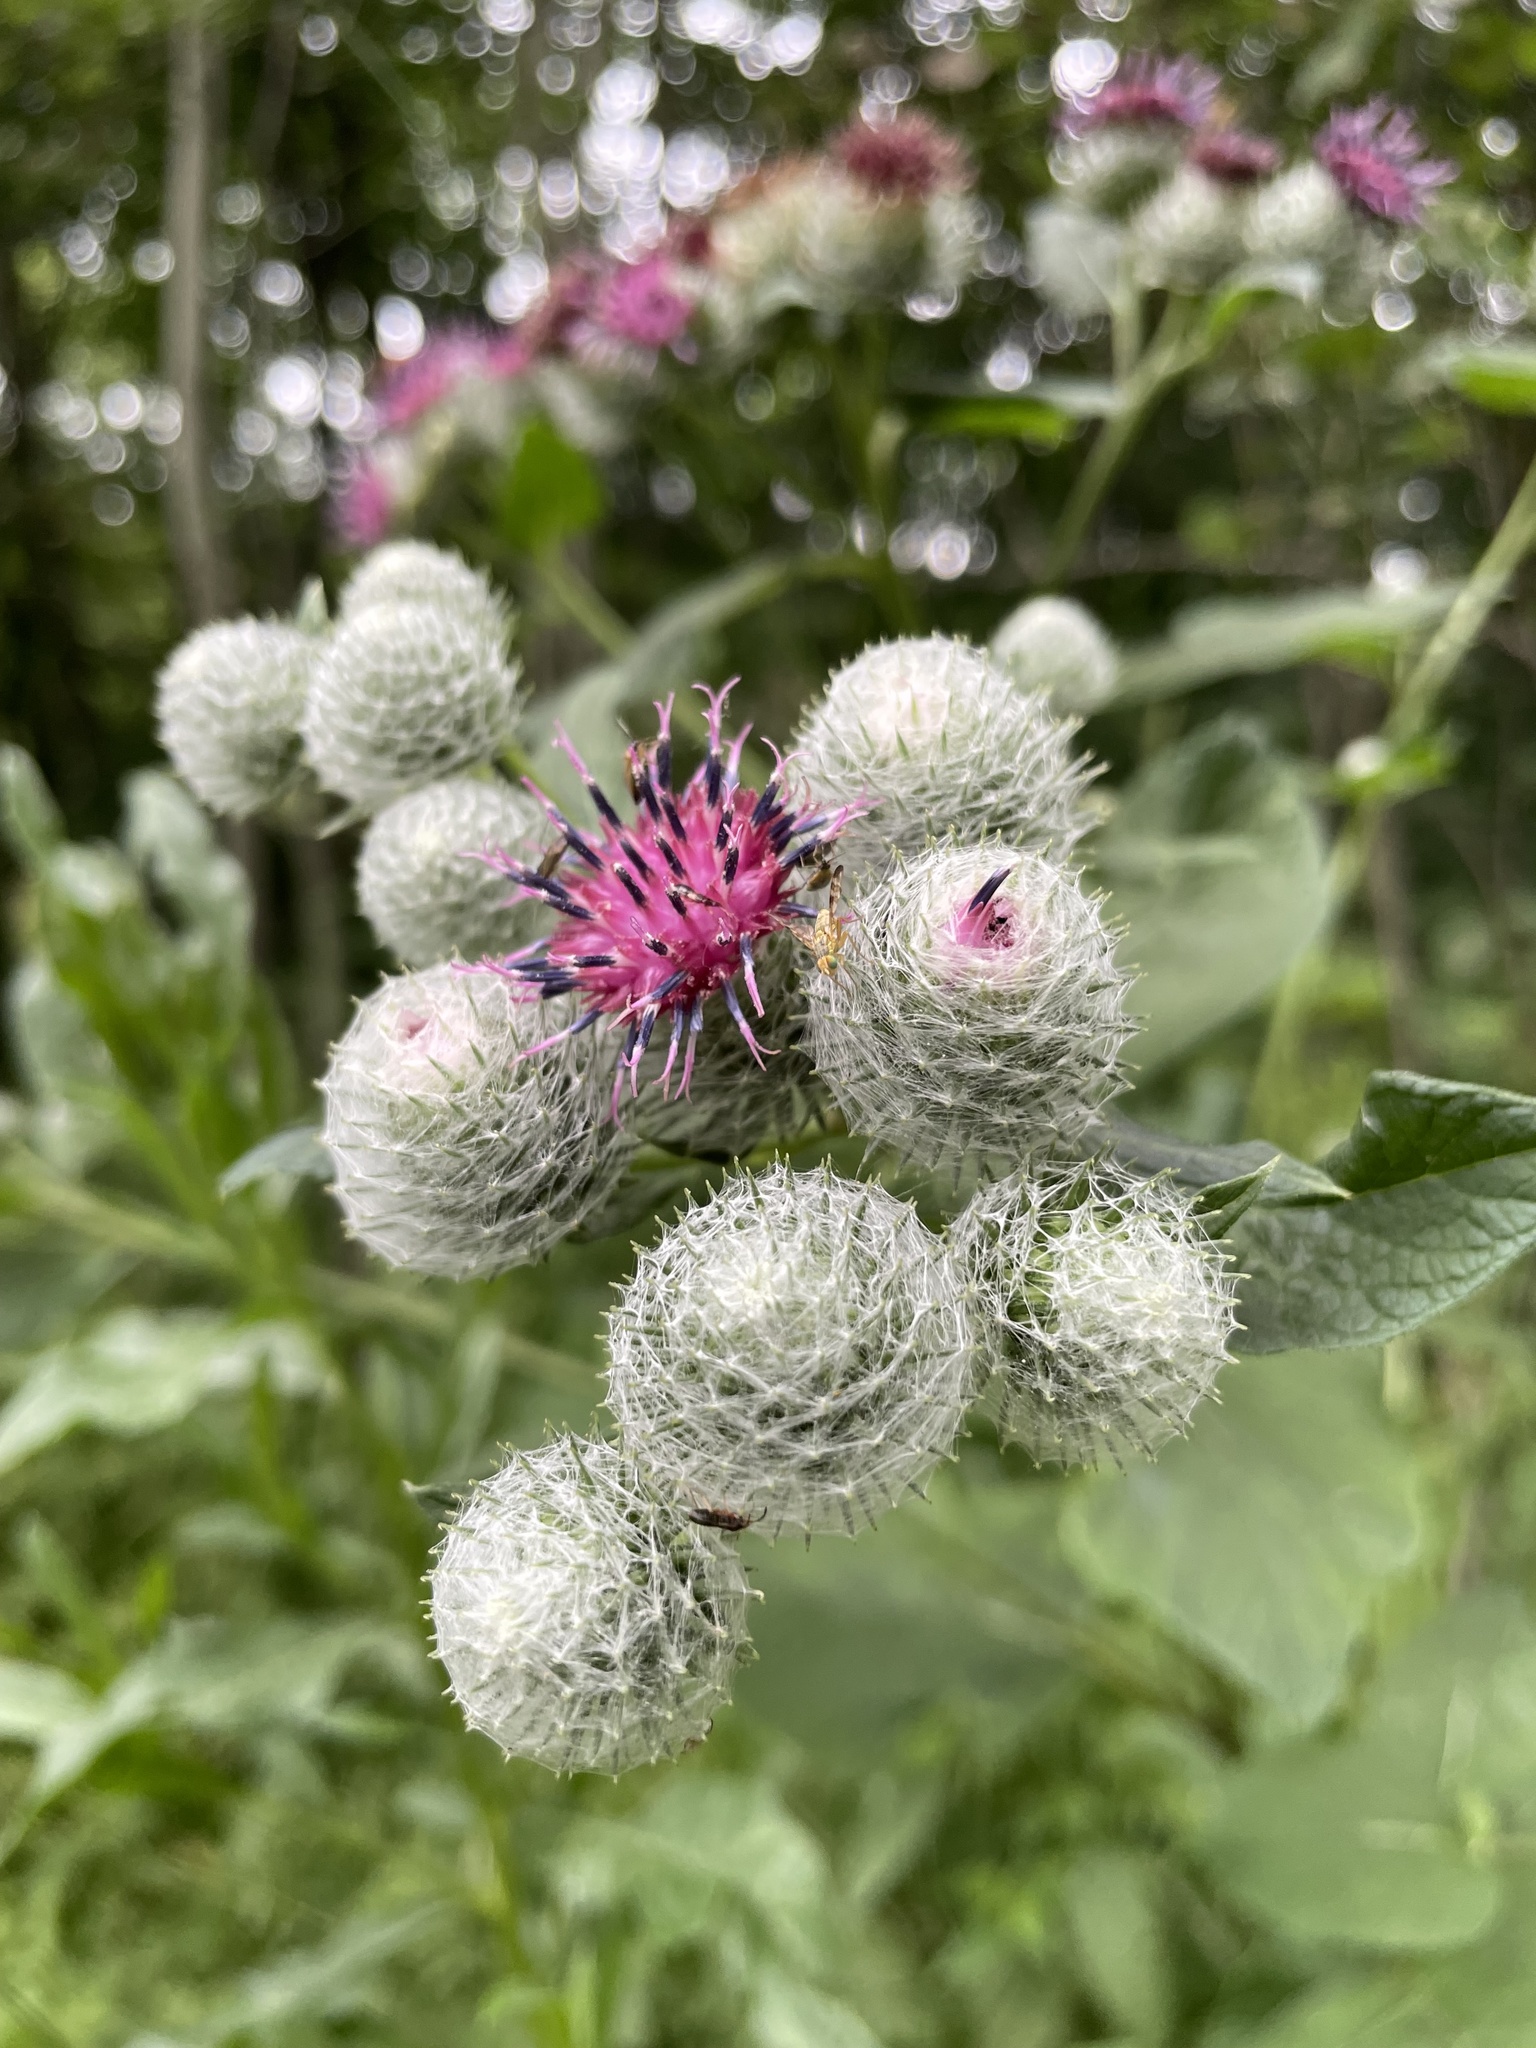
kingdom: Plantae
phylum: Tracheophyta
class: Magnoliopsida
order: Asterales
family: Asteraceae
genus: Arctium
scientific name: Arctium tomentosum
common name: Woolly burdock
